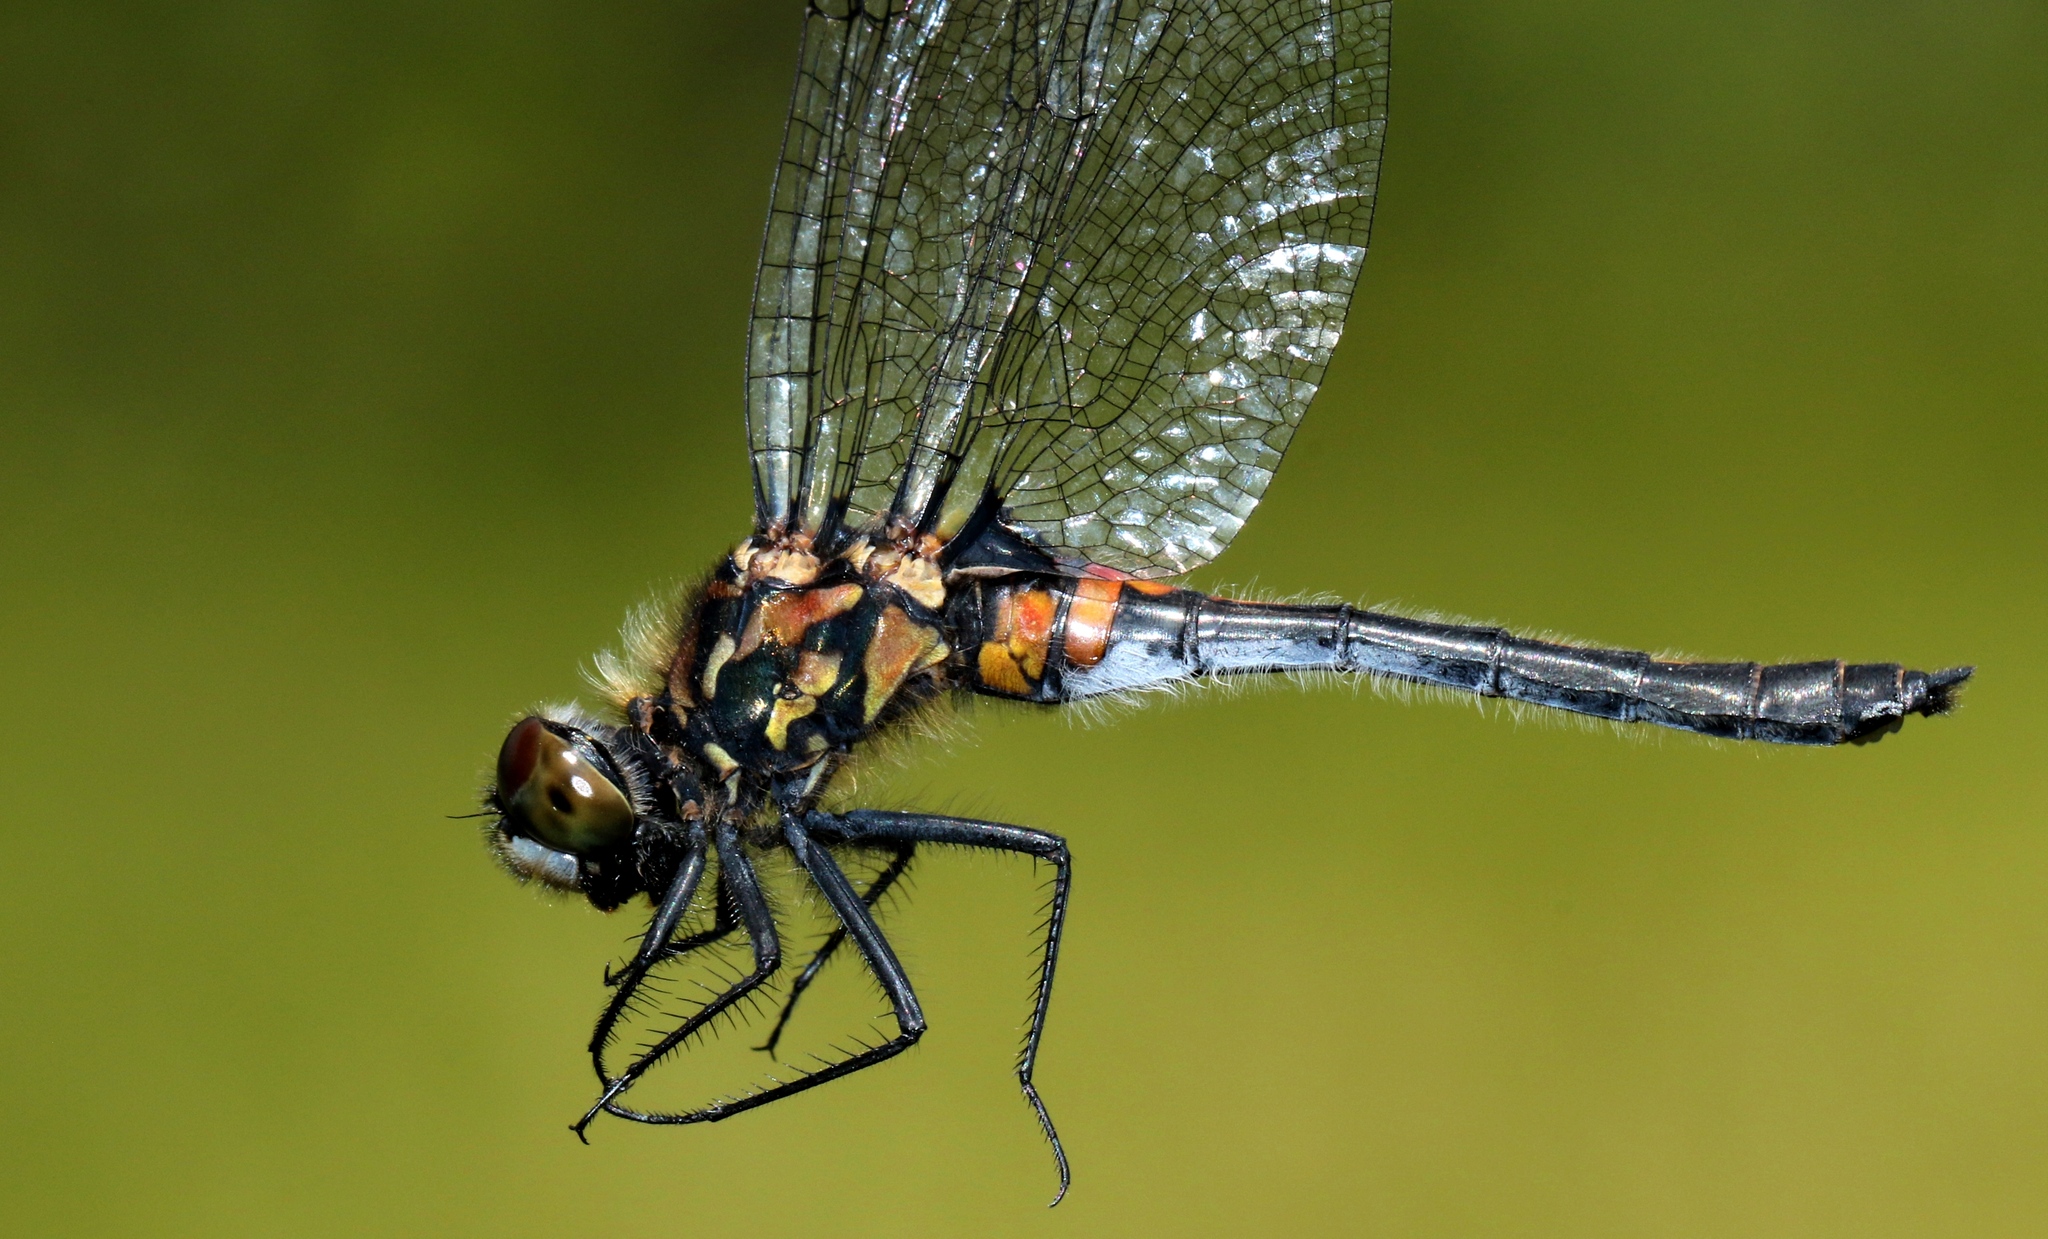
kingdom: Animalia
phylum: Arthropoda
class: Insecta
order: Odonata
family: Libellulidae
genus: Leucorrhinia
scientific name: Leucorrhinia glacialis
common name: Crimson-ringed whiteface
